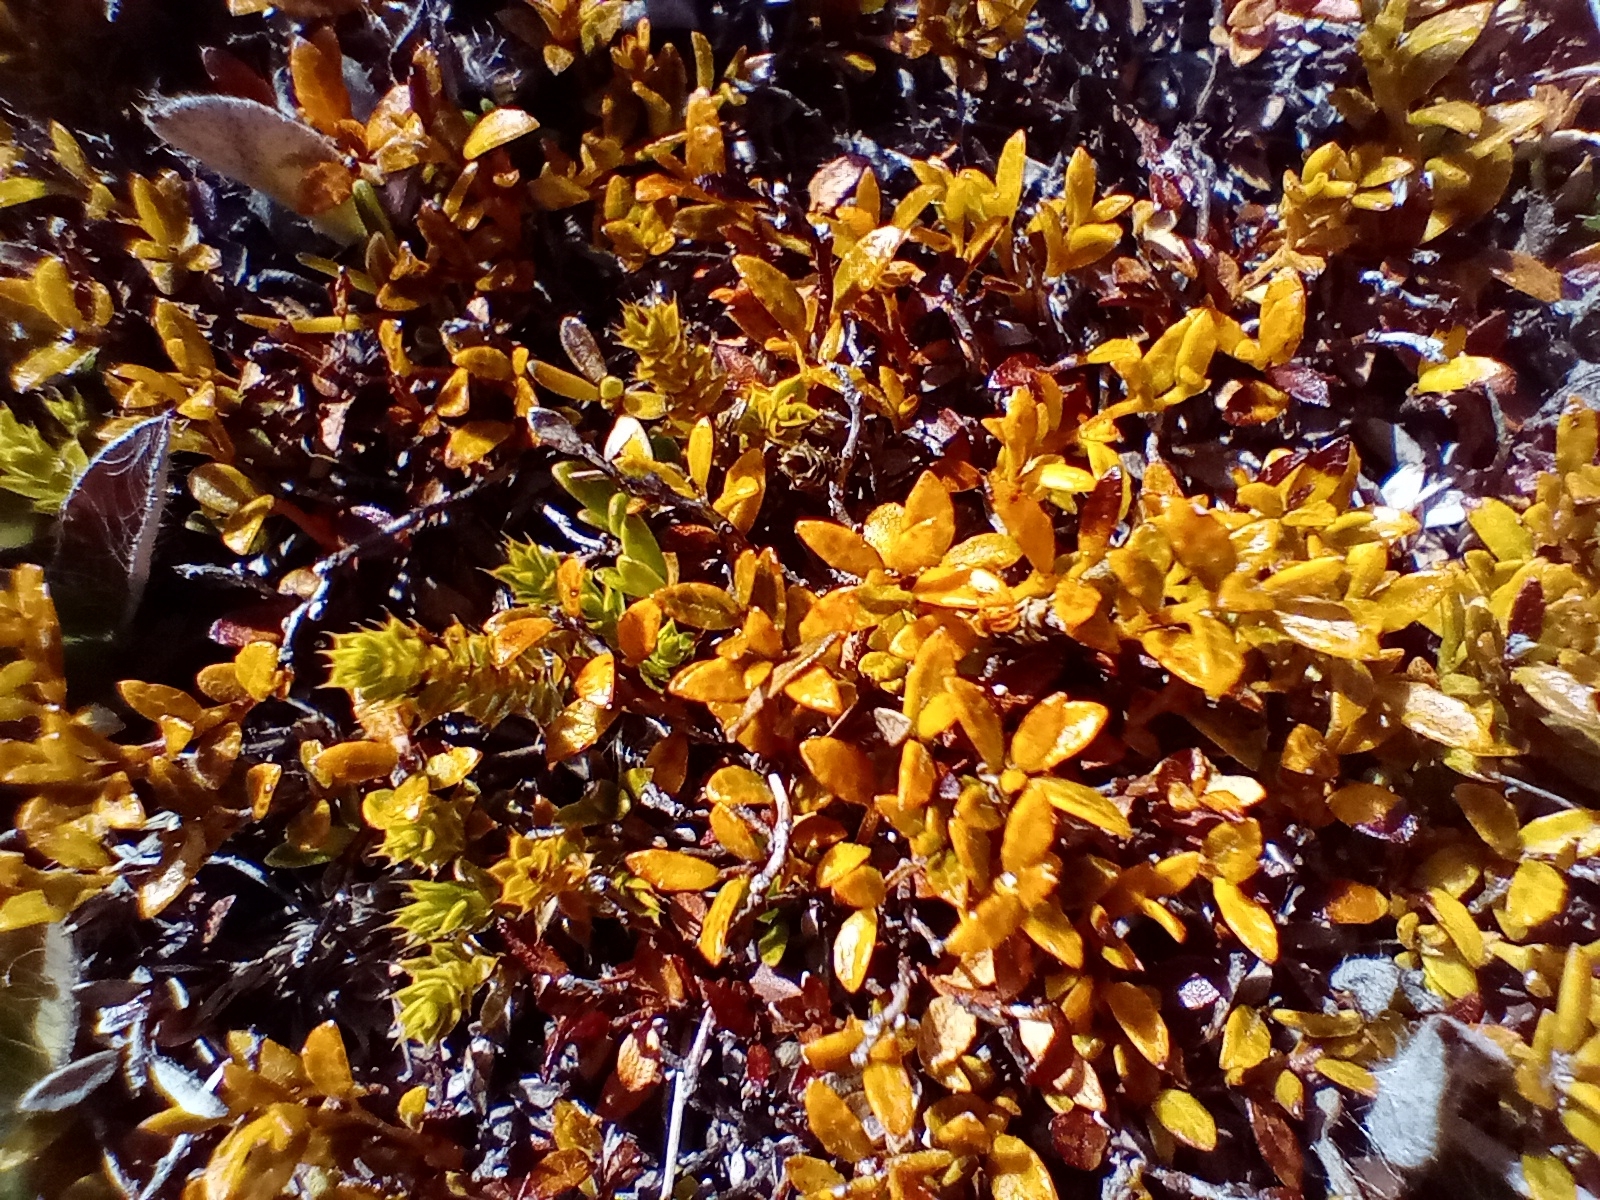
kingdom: Plantae
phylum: Tracheophyta
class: Magnoliopsida
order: Ericales
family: Ericaceae
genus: Gaultheria
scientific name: Gaultheria parvula
